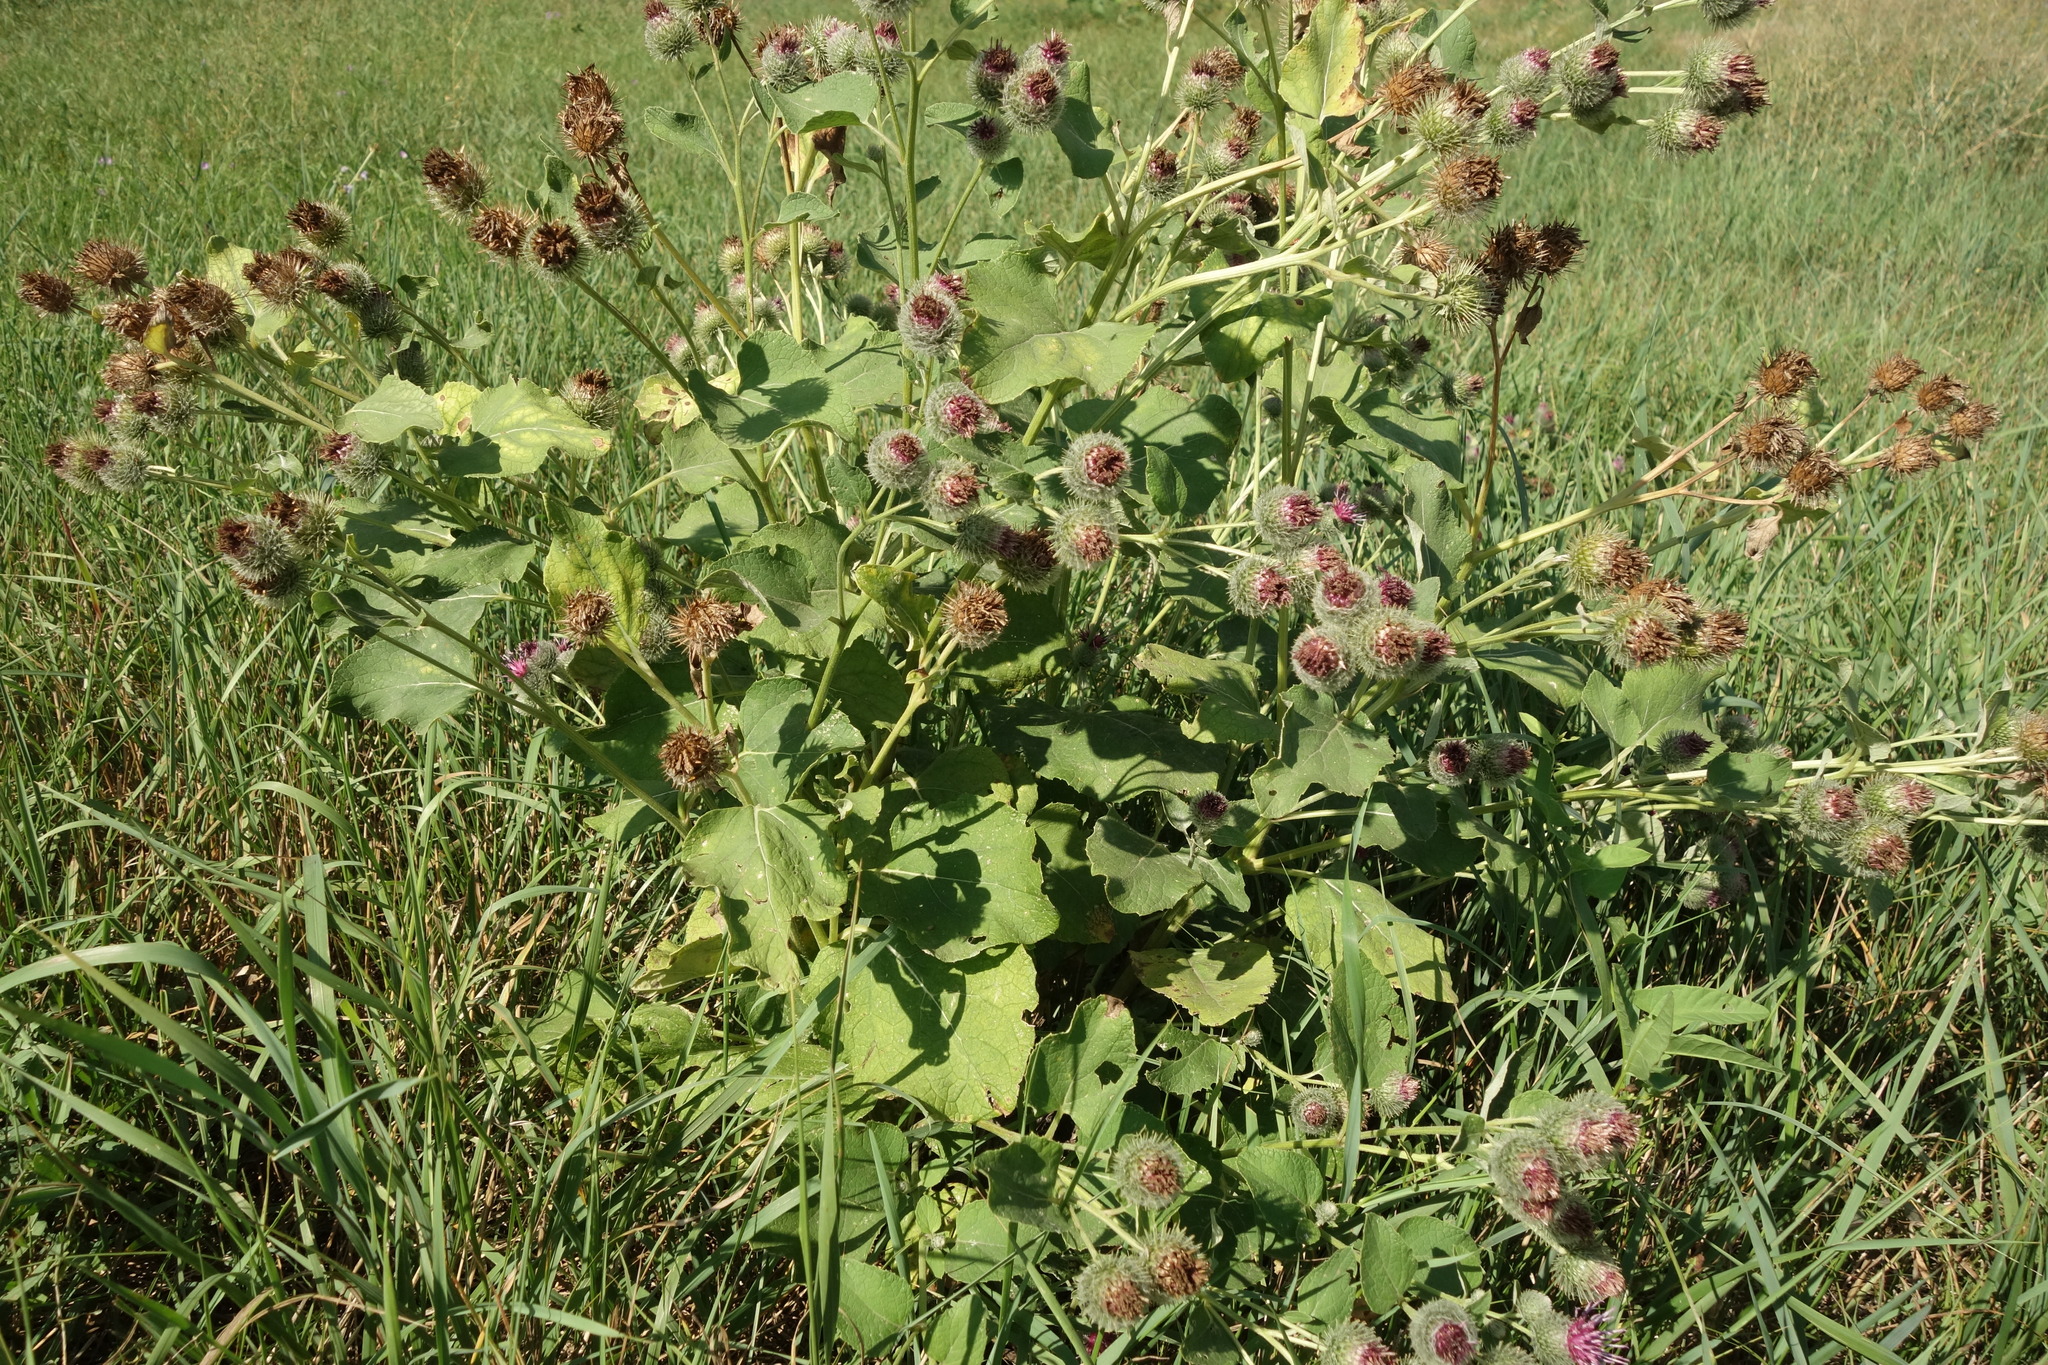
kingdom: Plantae
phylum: Tracheophyta
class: Magnoliopsida
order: Asterales
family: Asteraceae
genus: Arctium
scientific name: Arctium tomentosum
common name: Woolly burdock
